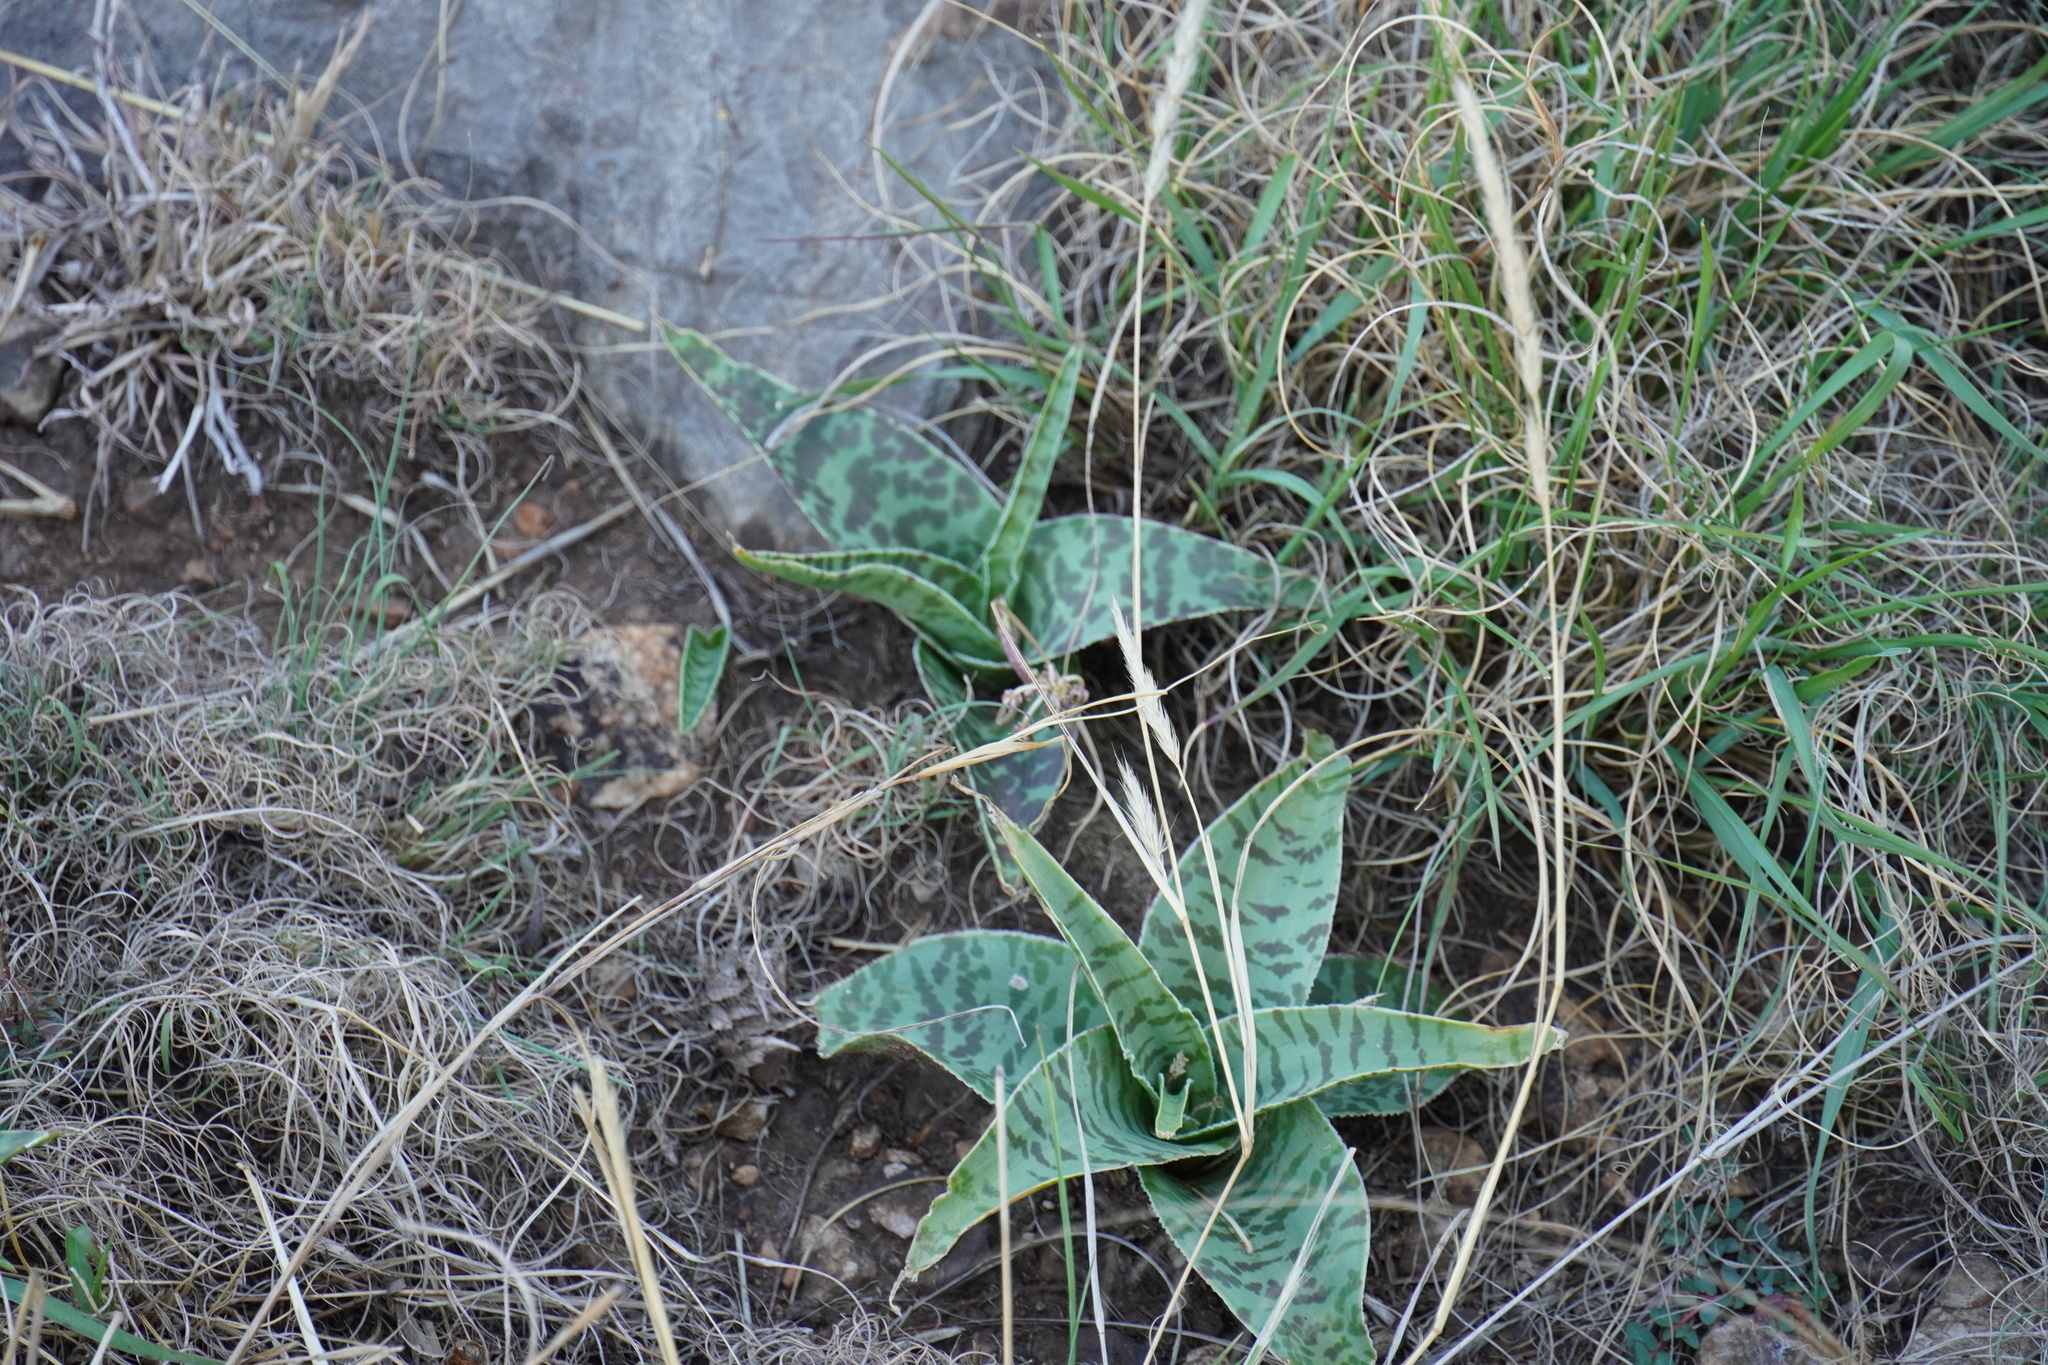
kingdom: Plantae
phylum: Tracheophyta
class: Liliopsida
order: Asparagales
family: Asparagaceae
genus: Ledebouria
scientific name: Ledebouria luteola
